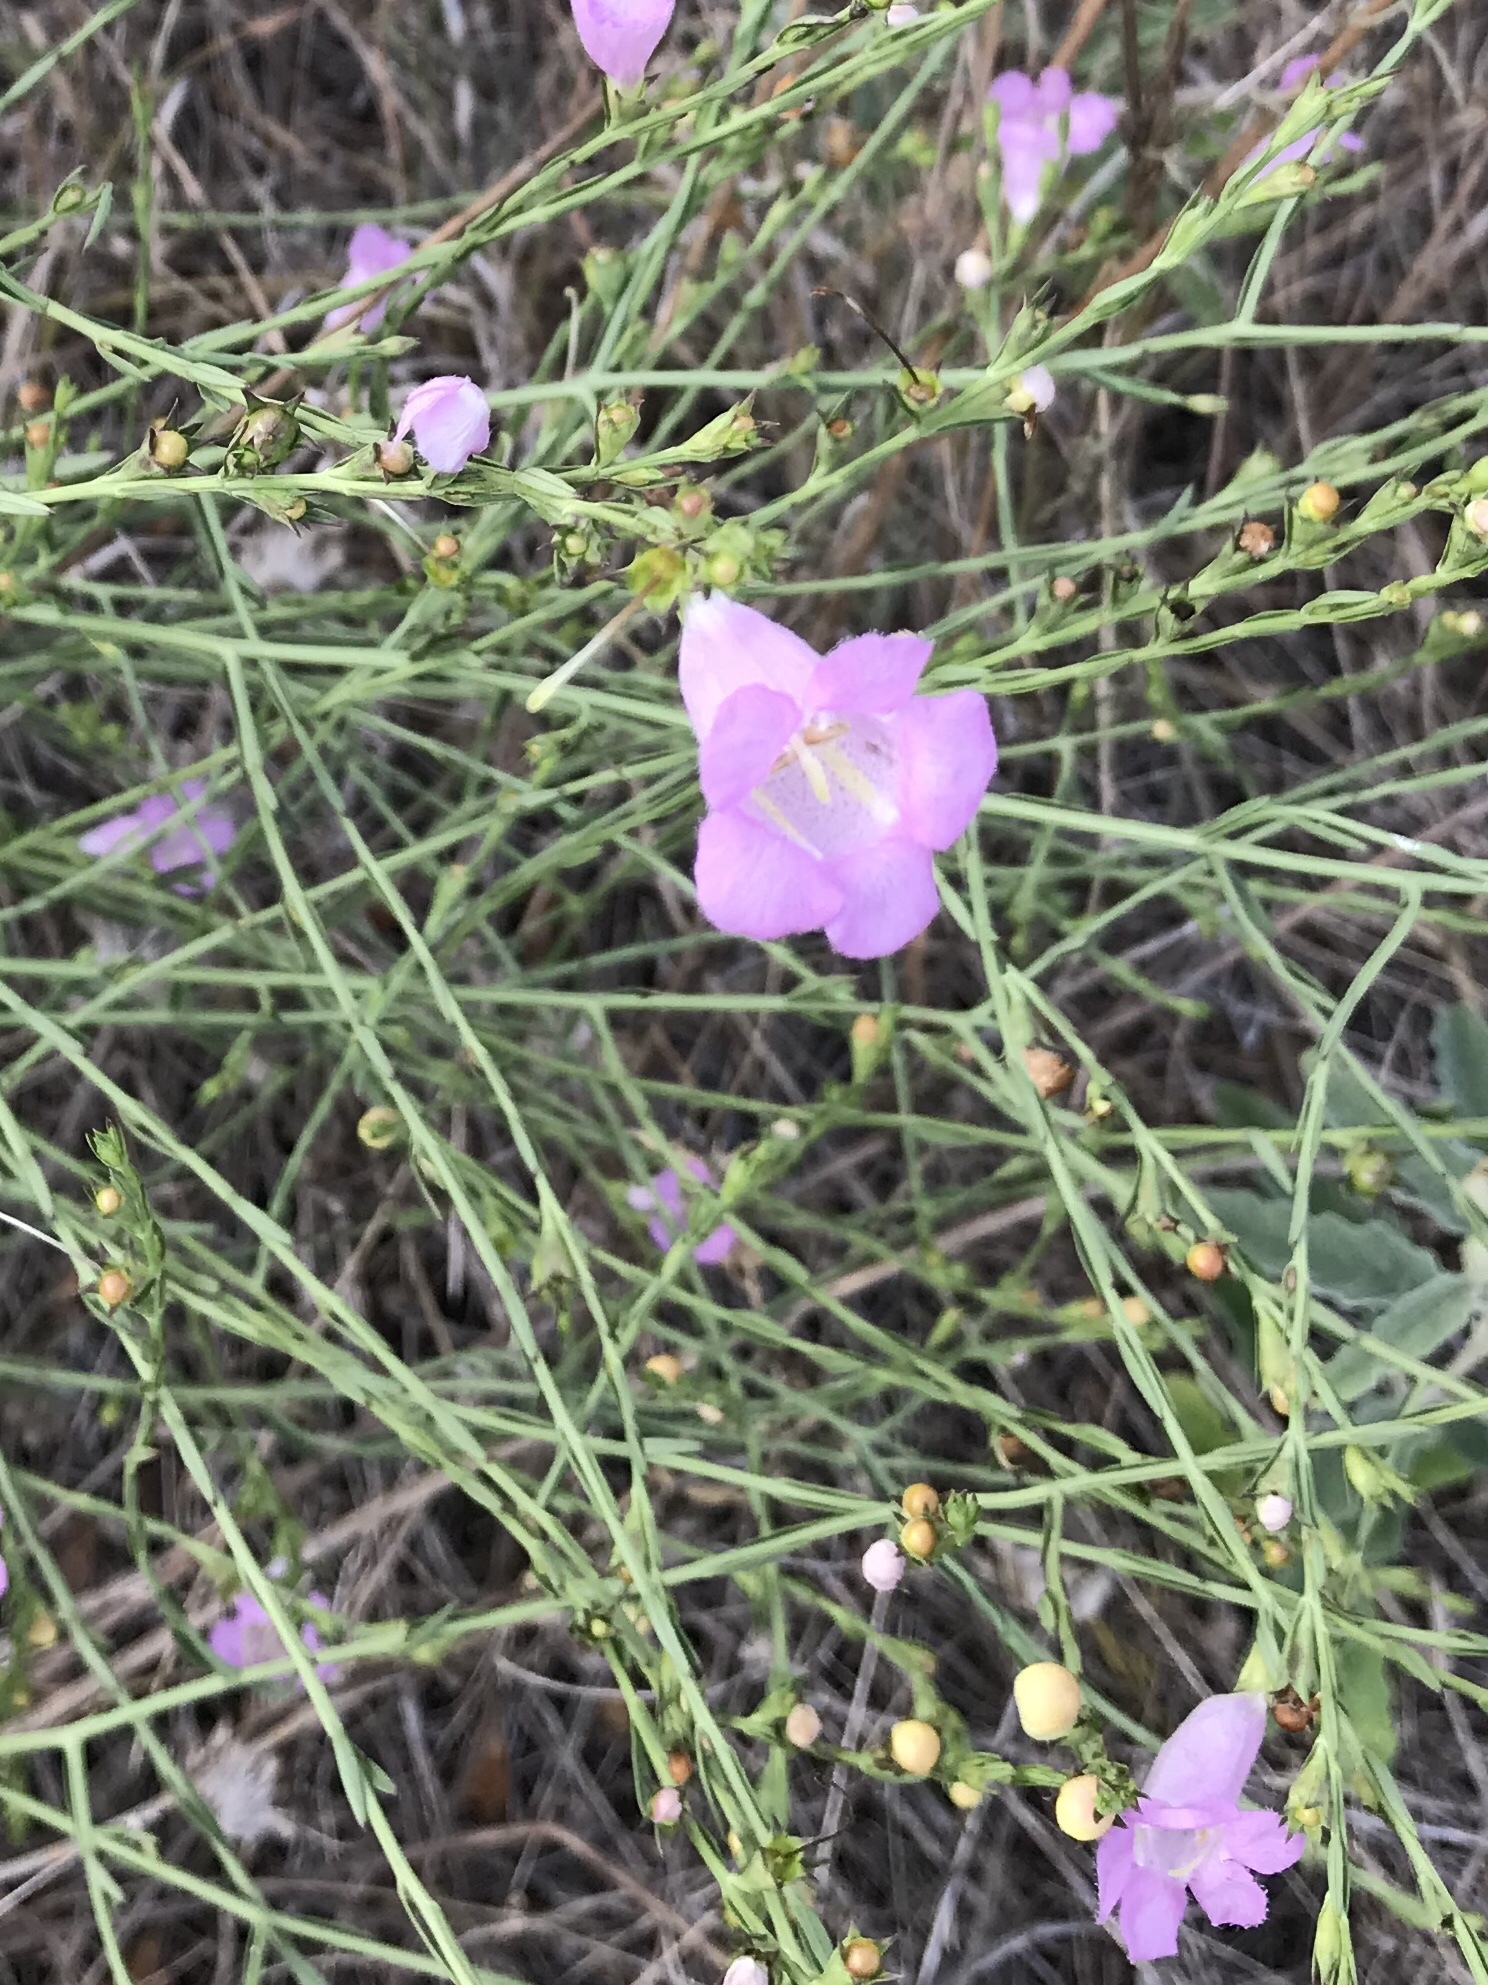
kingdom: Plantae
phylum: Tracheophyta
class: Magnoliopsida
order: Lamiales
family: Orobanchaceae
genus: Agalinis
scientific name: Agalinis heterophylla
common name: Prairie agalinis
